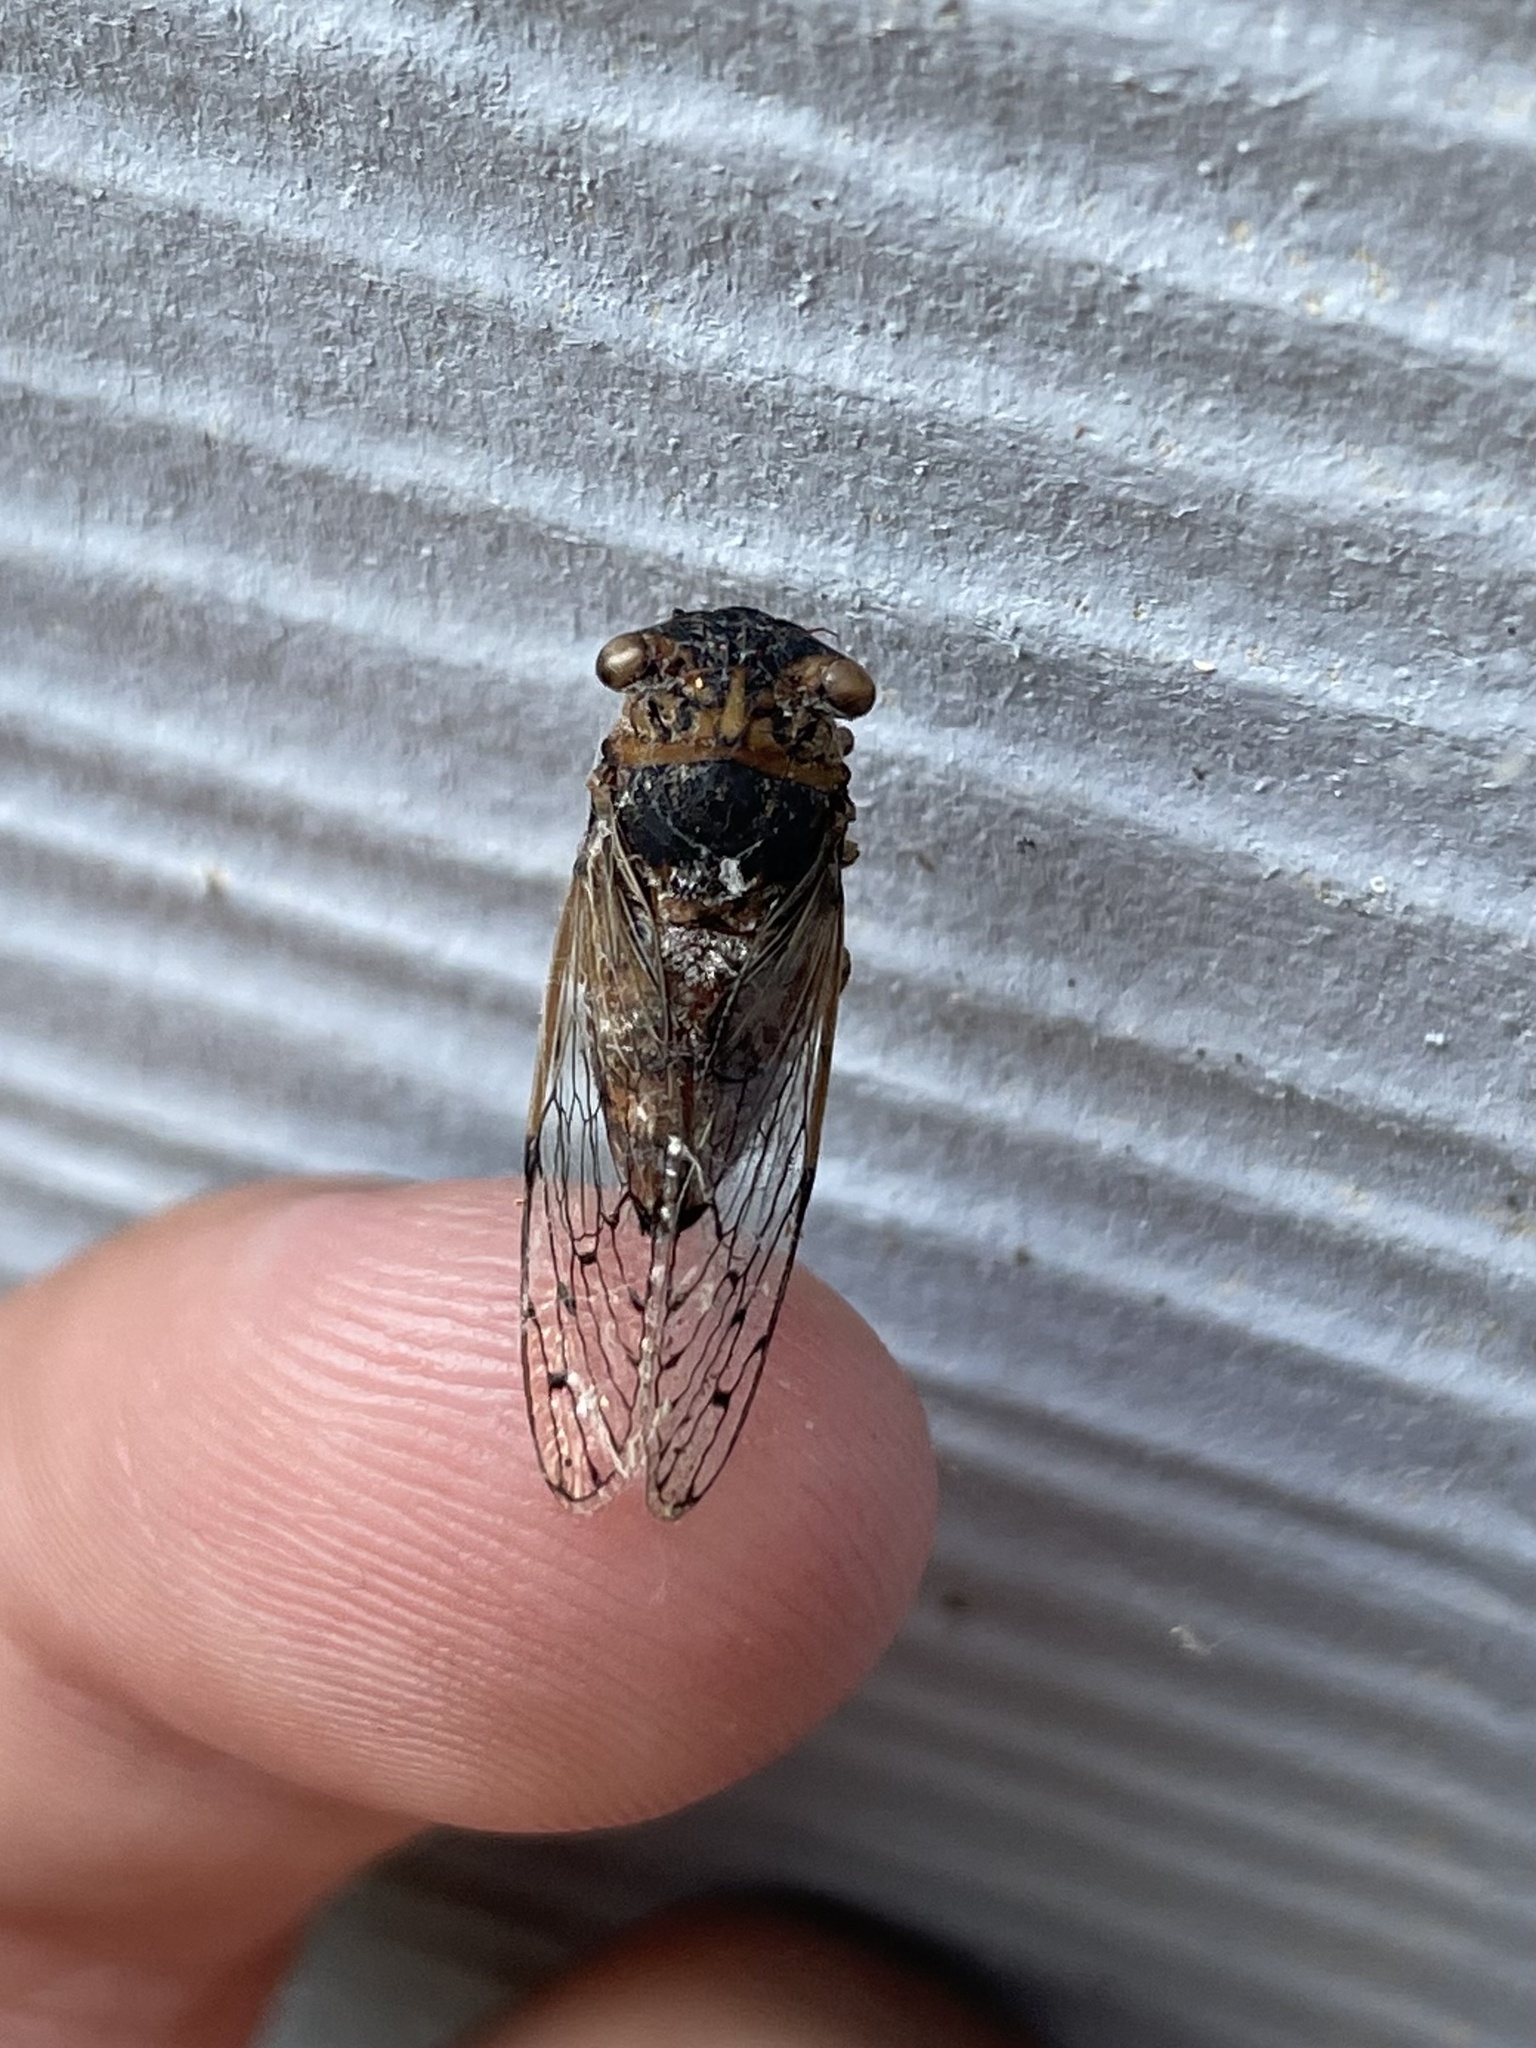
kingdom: Animalia
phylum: Arthropoda
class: Insecta
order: Hemiptera
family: Cicadidae
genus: Pacarina
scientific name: Pacarina puella
